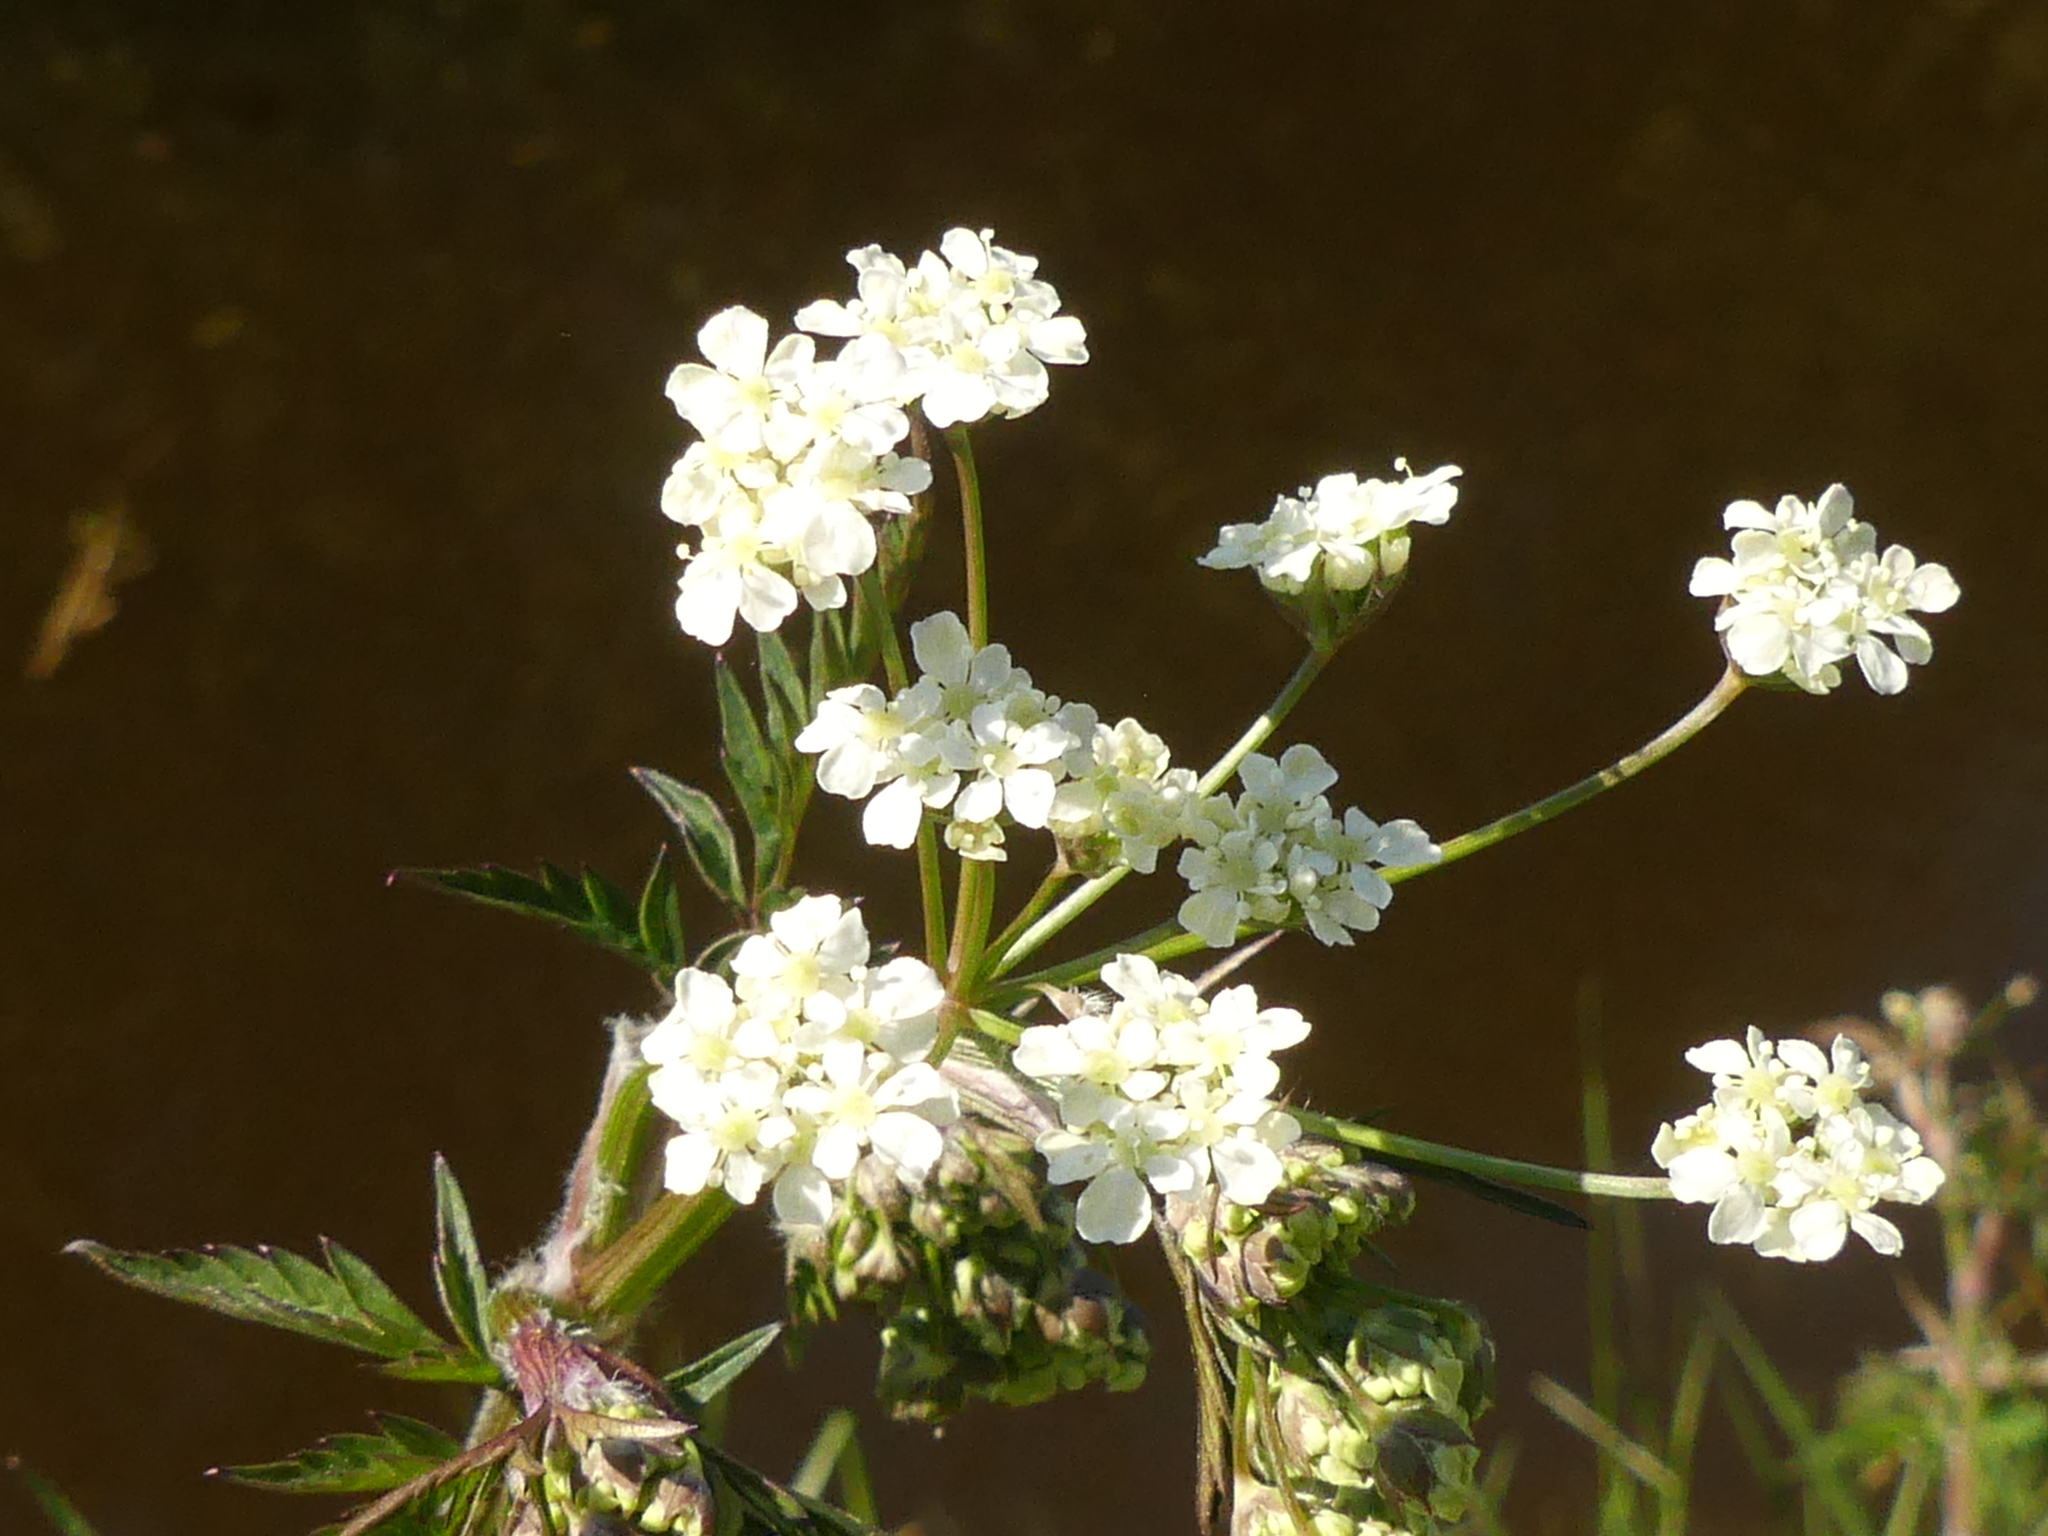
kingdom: Plantae
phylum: Tracheophyta
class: Magnoliopsida
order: Apiales
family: Apiaceae
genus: Anthriscus
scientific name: Anthriscus sylvestris
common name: Cow parsley
